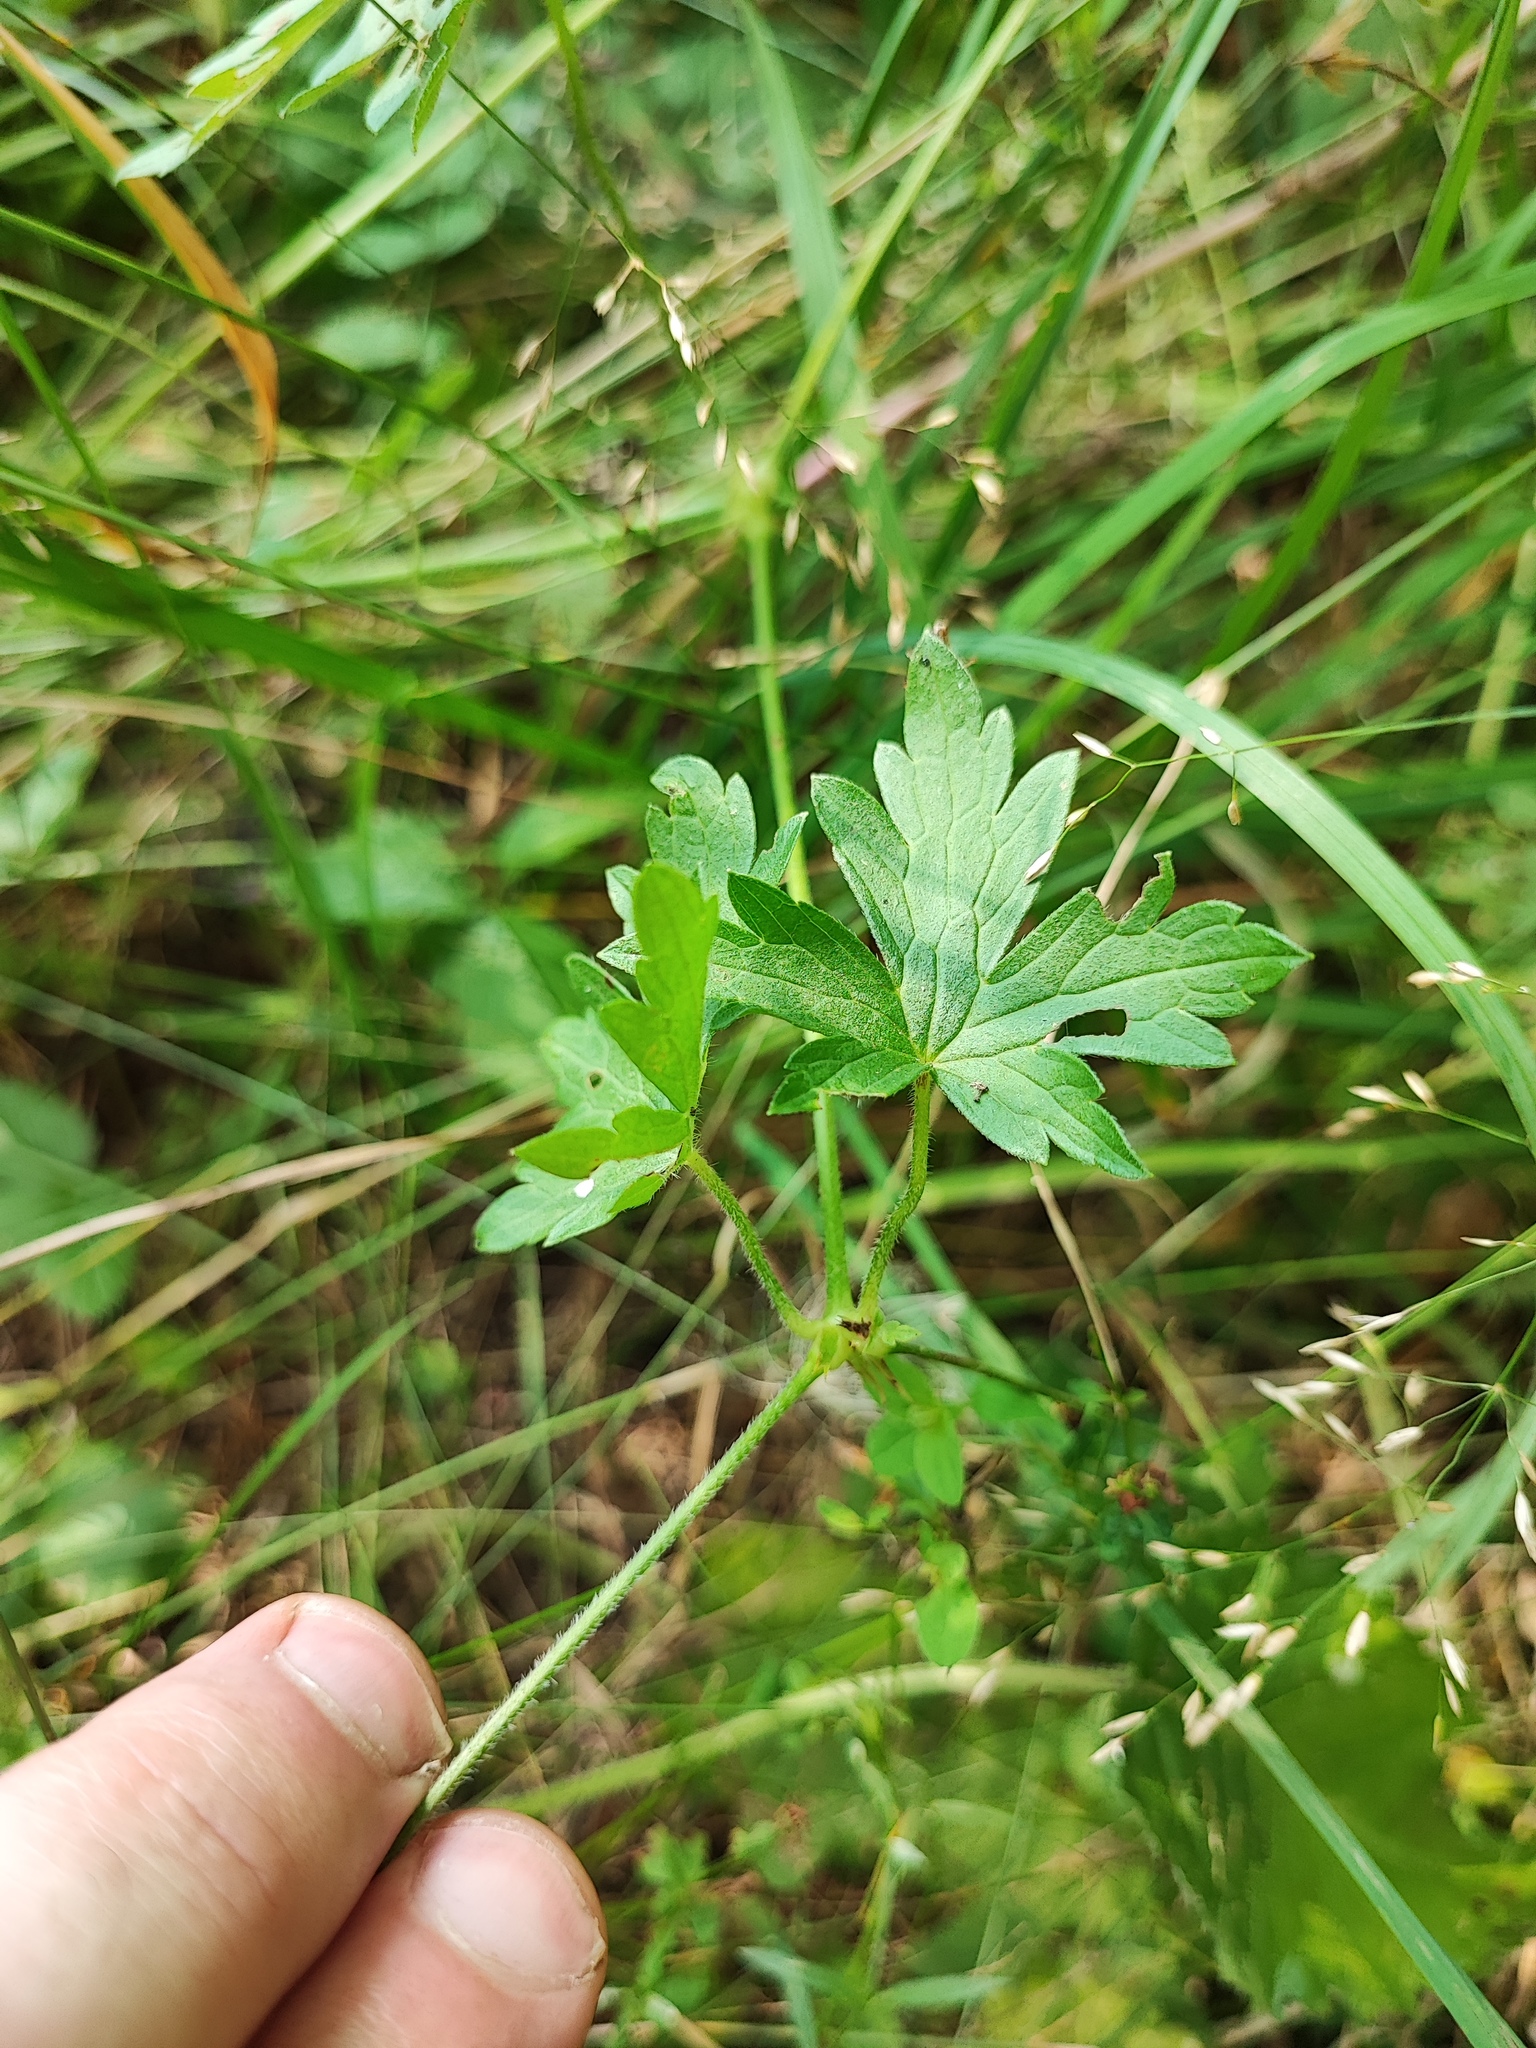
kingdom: Plantae
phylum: Tracheophyta
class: Magnoliopsida
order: Geraniales
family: Geraniaceae
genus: Geranium
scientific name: Geranium palustre
